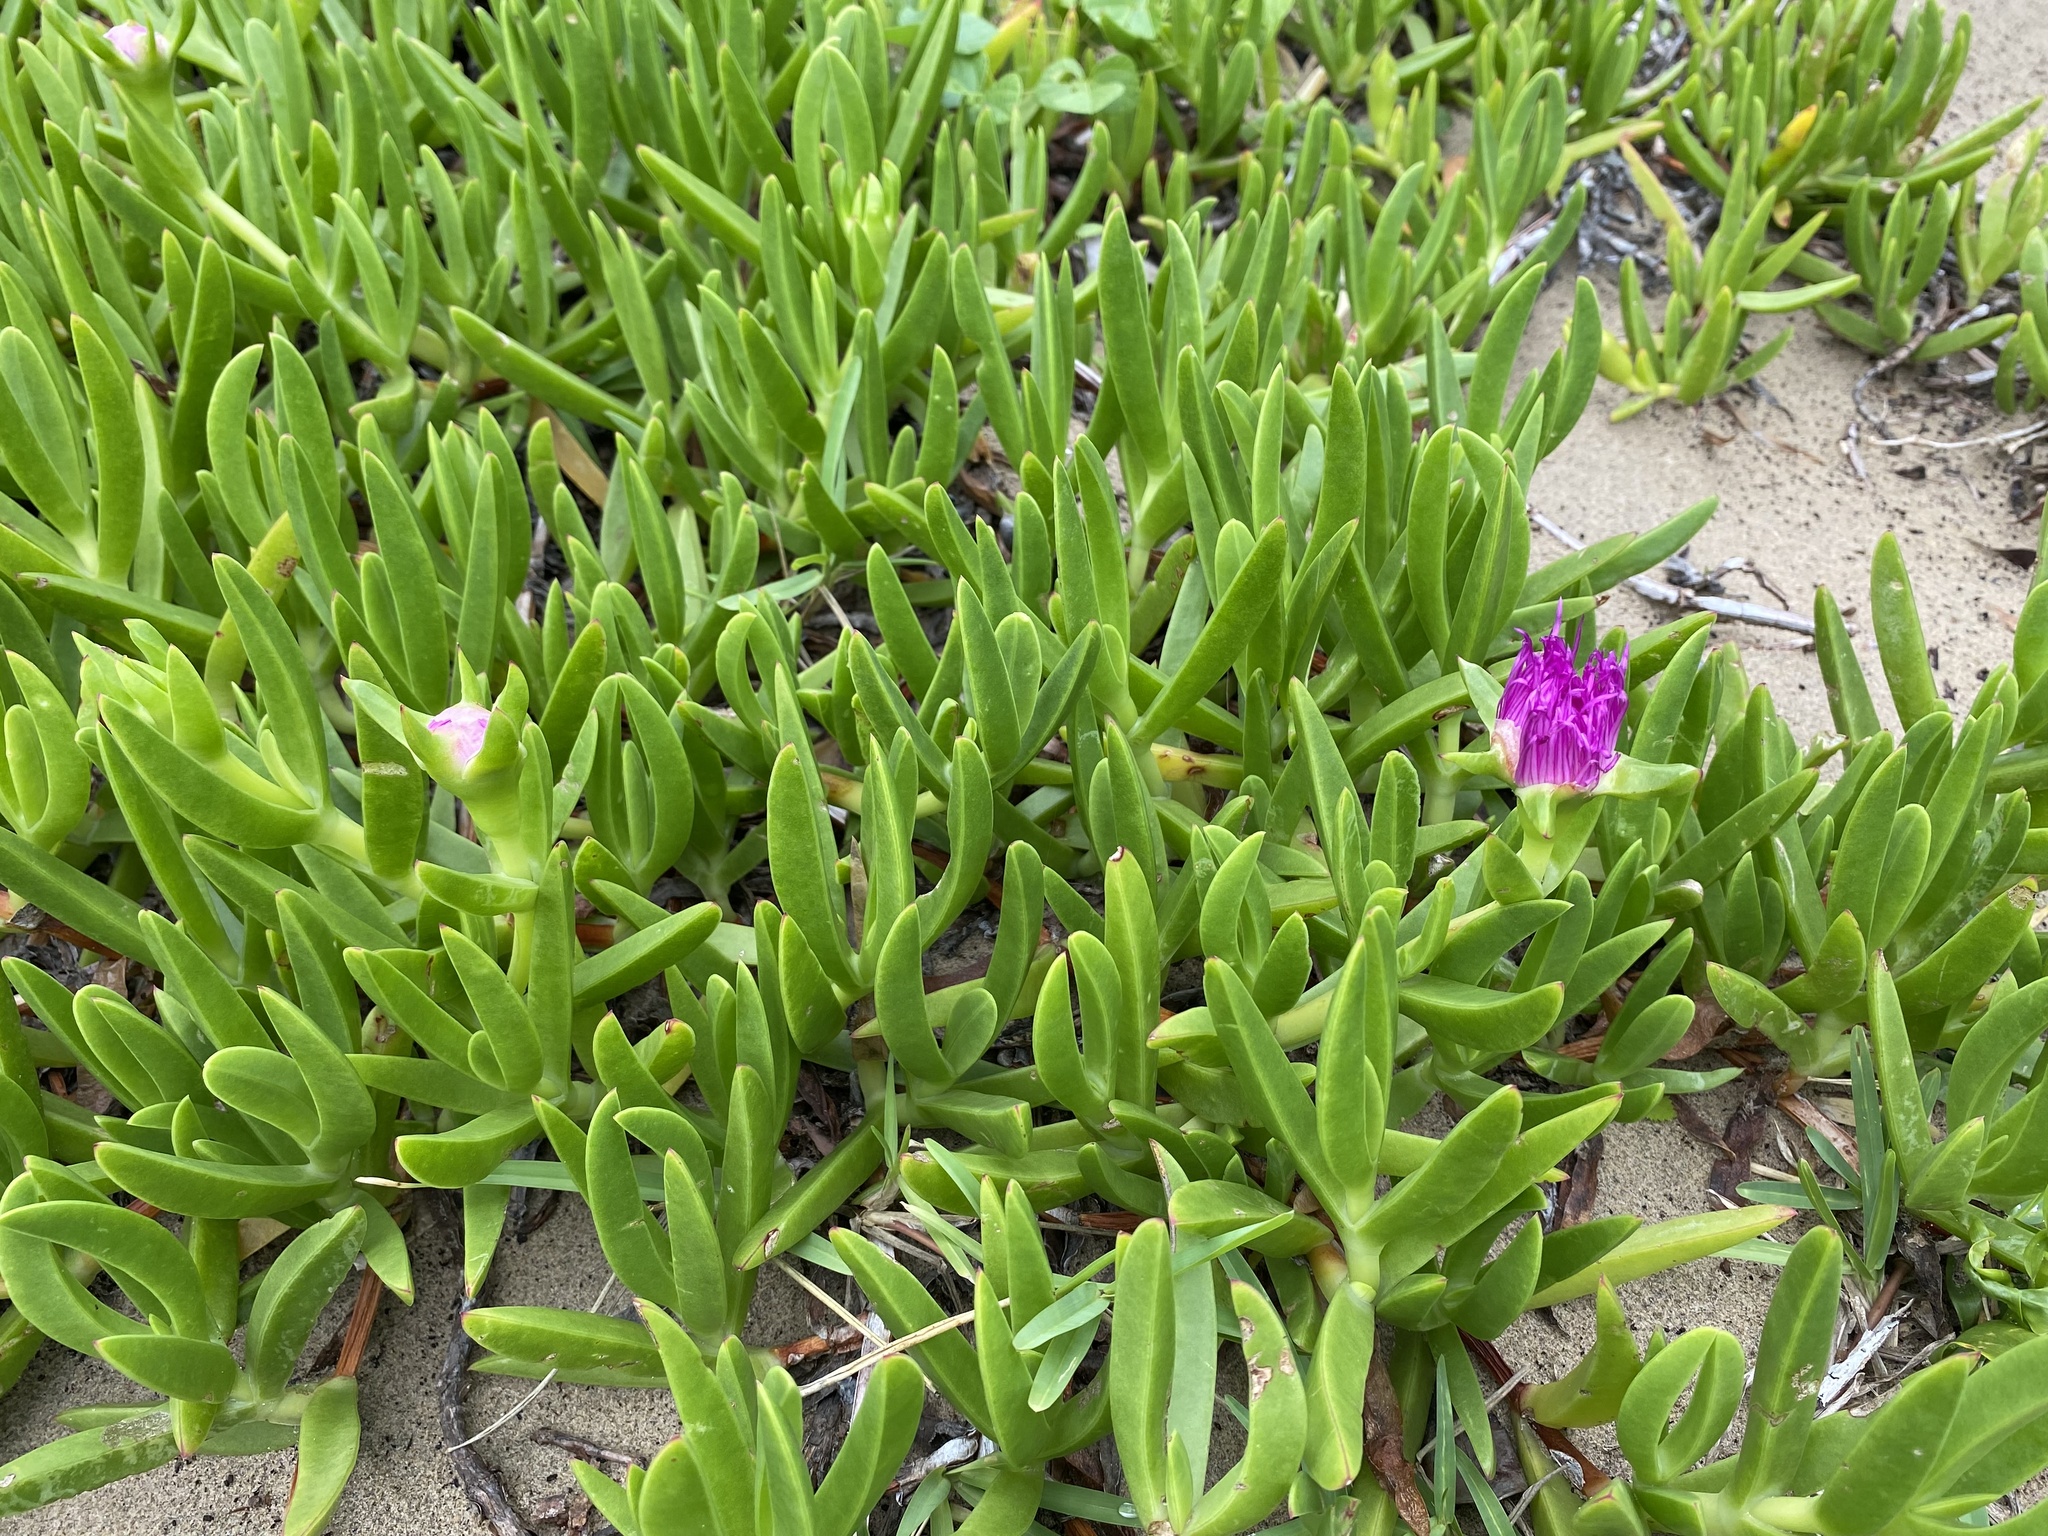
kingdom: Plantae
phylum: Tracheophyta
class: Magnoliopsida
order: Caryophyllales
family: Aizoaceae
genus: Carpobrotus
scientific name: Carpobrotus dimidiatus
